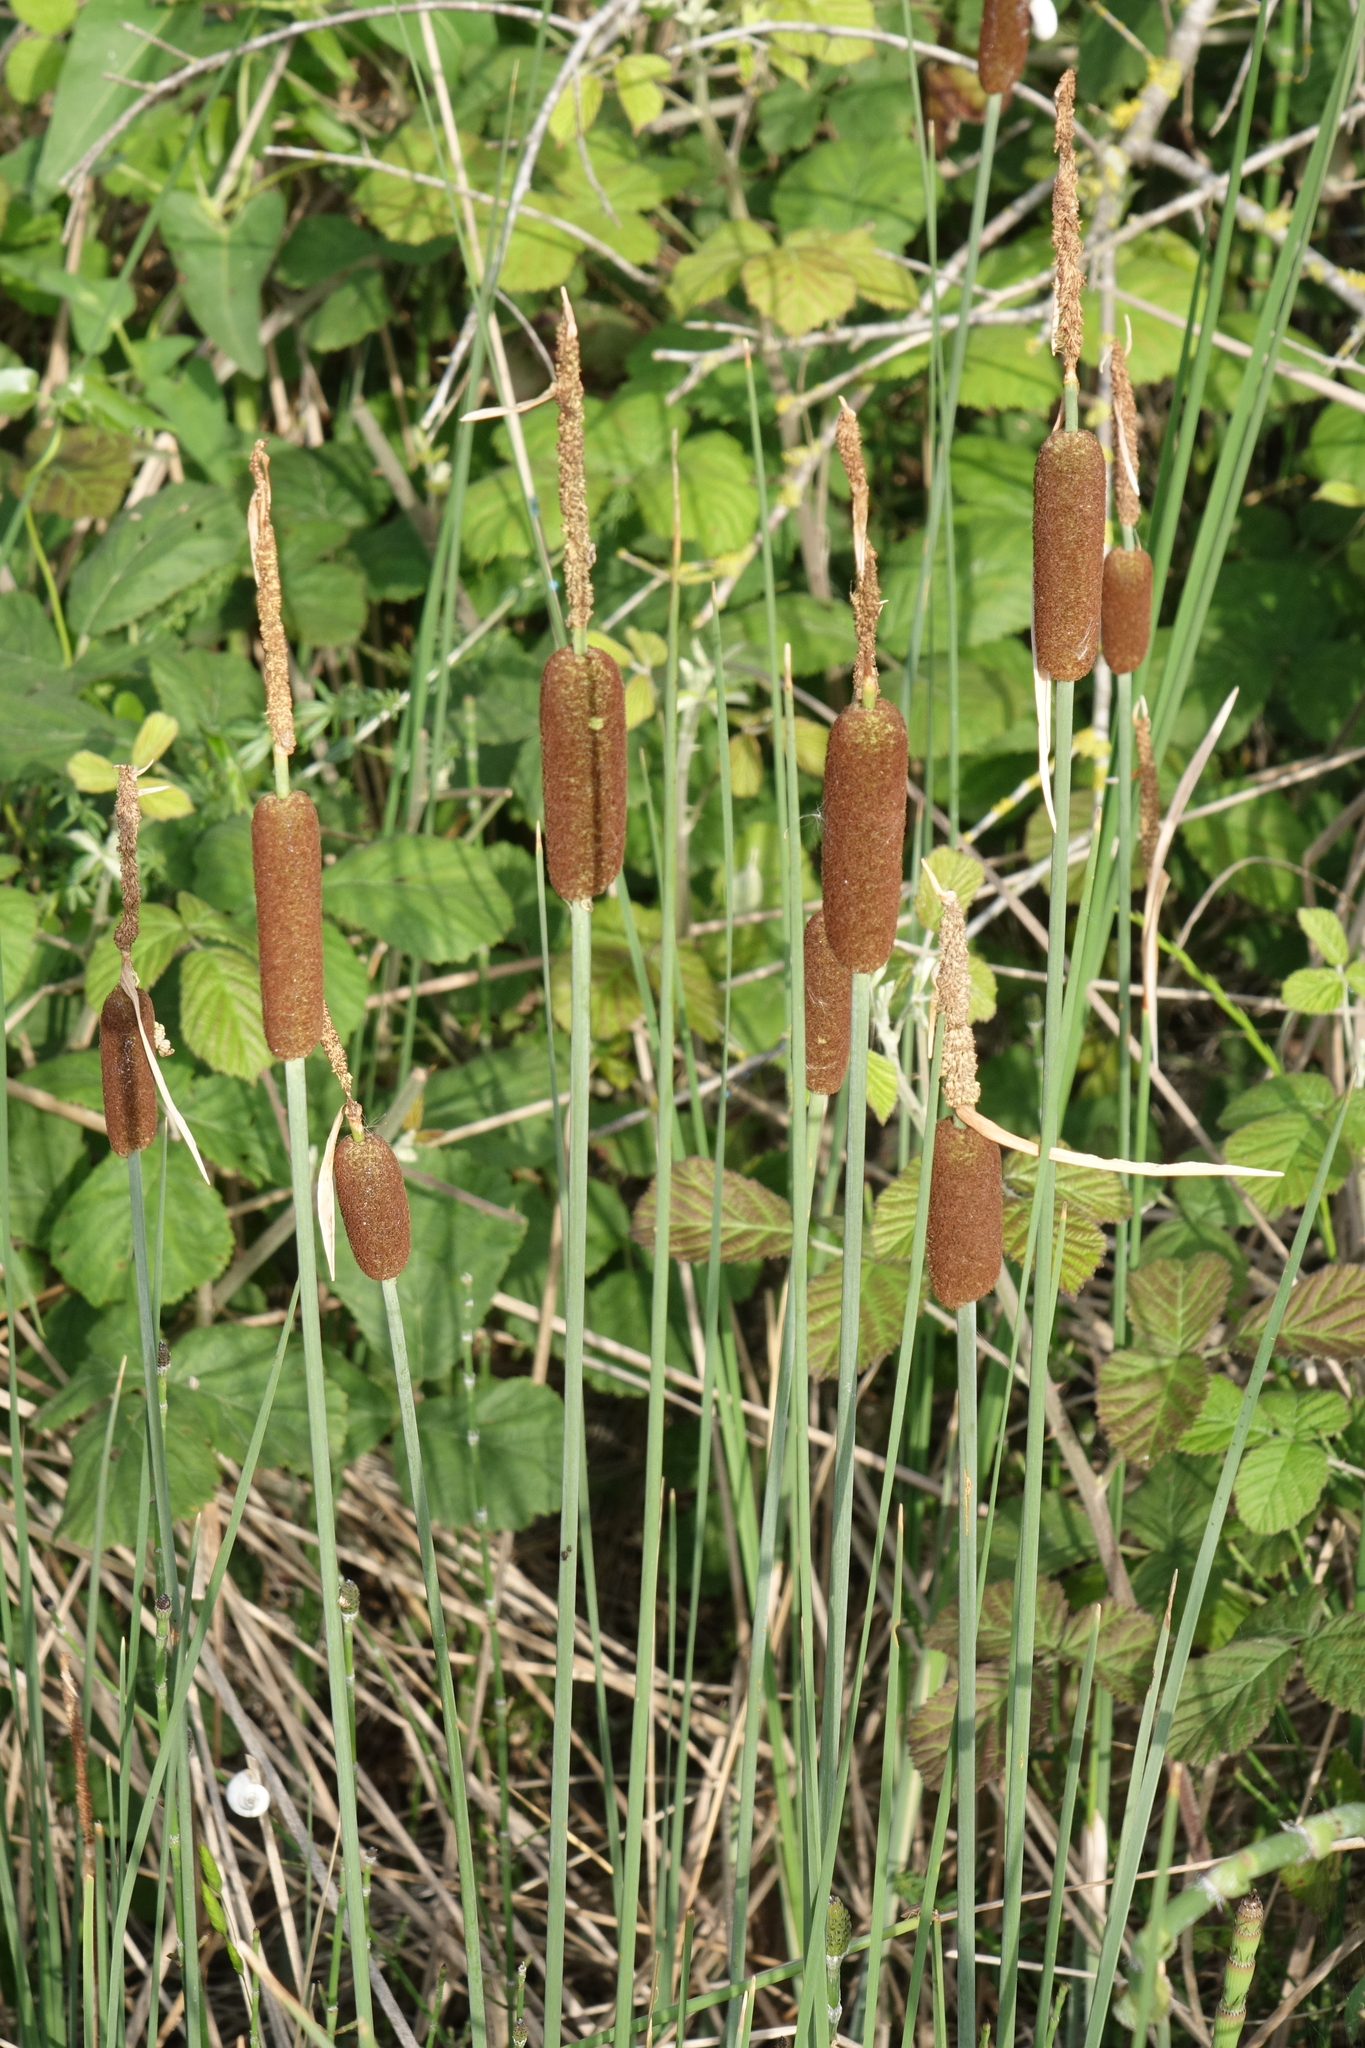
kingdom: Plantae
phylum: Tracheophyta
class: Liliopsida
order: Poales
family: Typhaceae
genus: Typha
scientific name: Typha minima
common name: Dwarf bulrush
